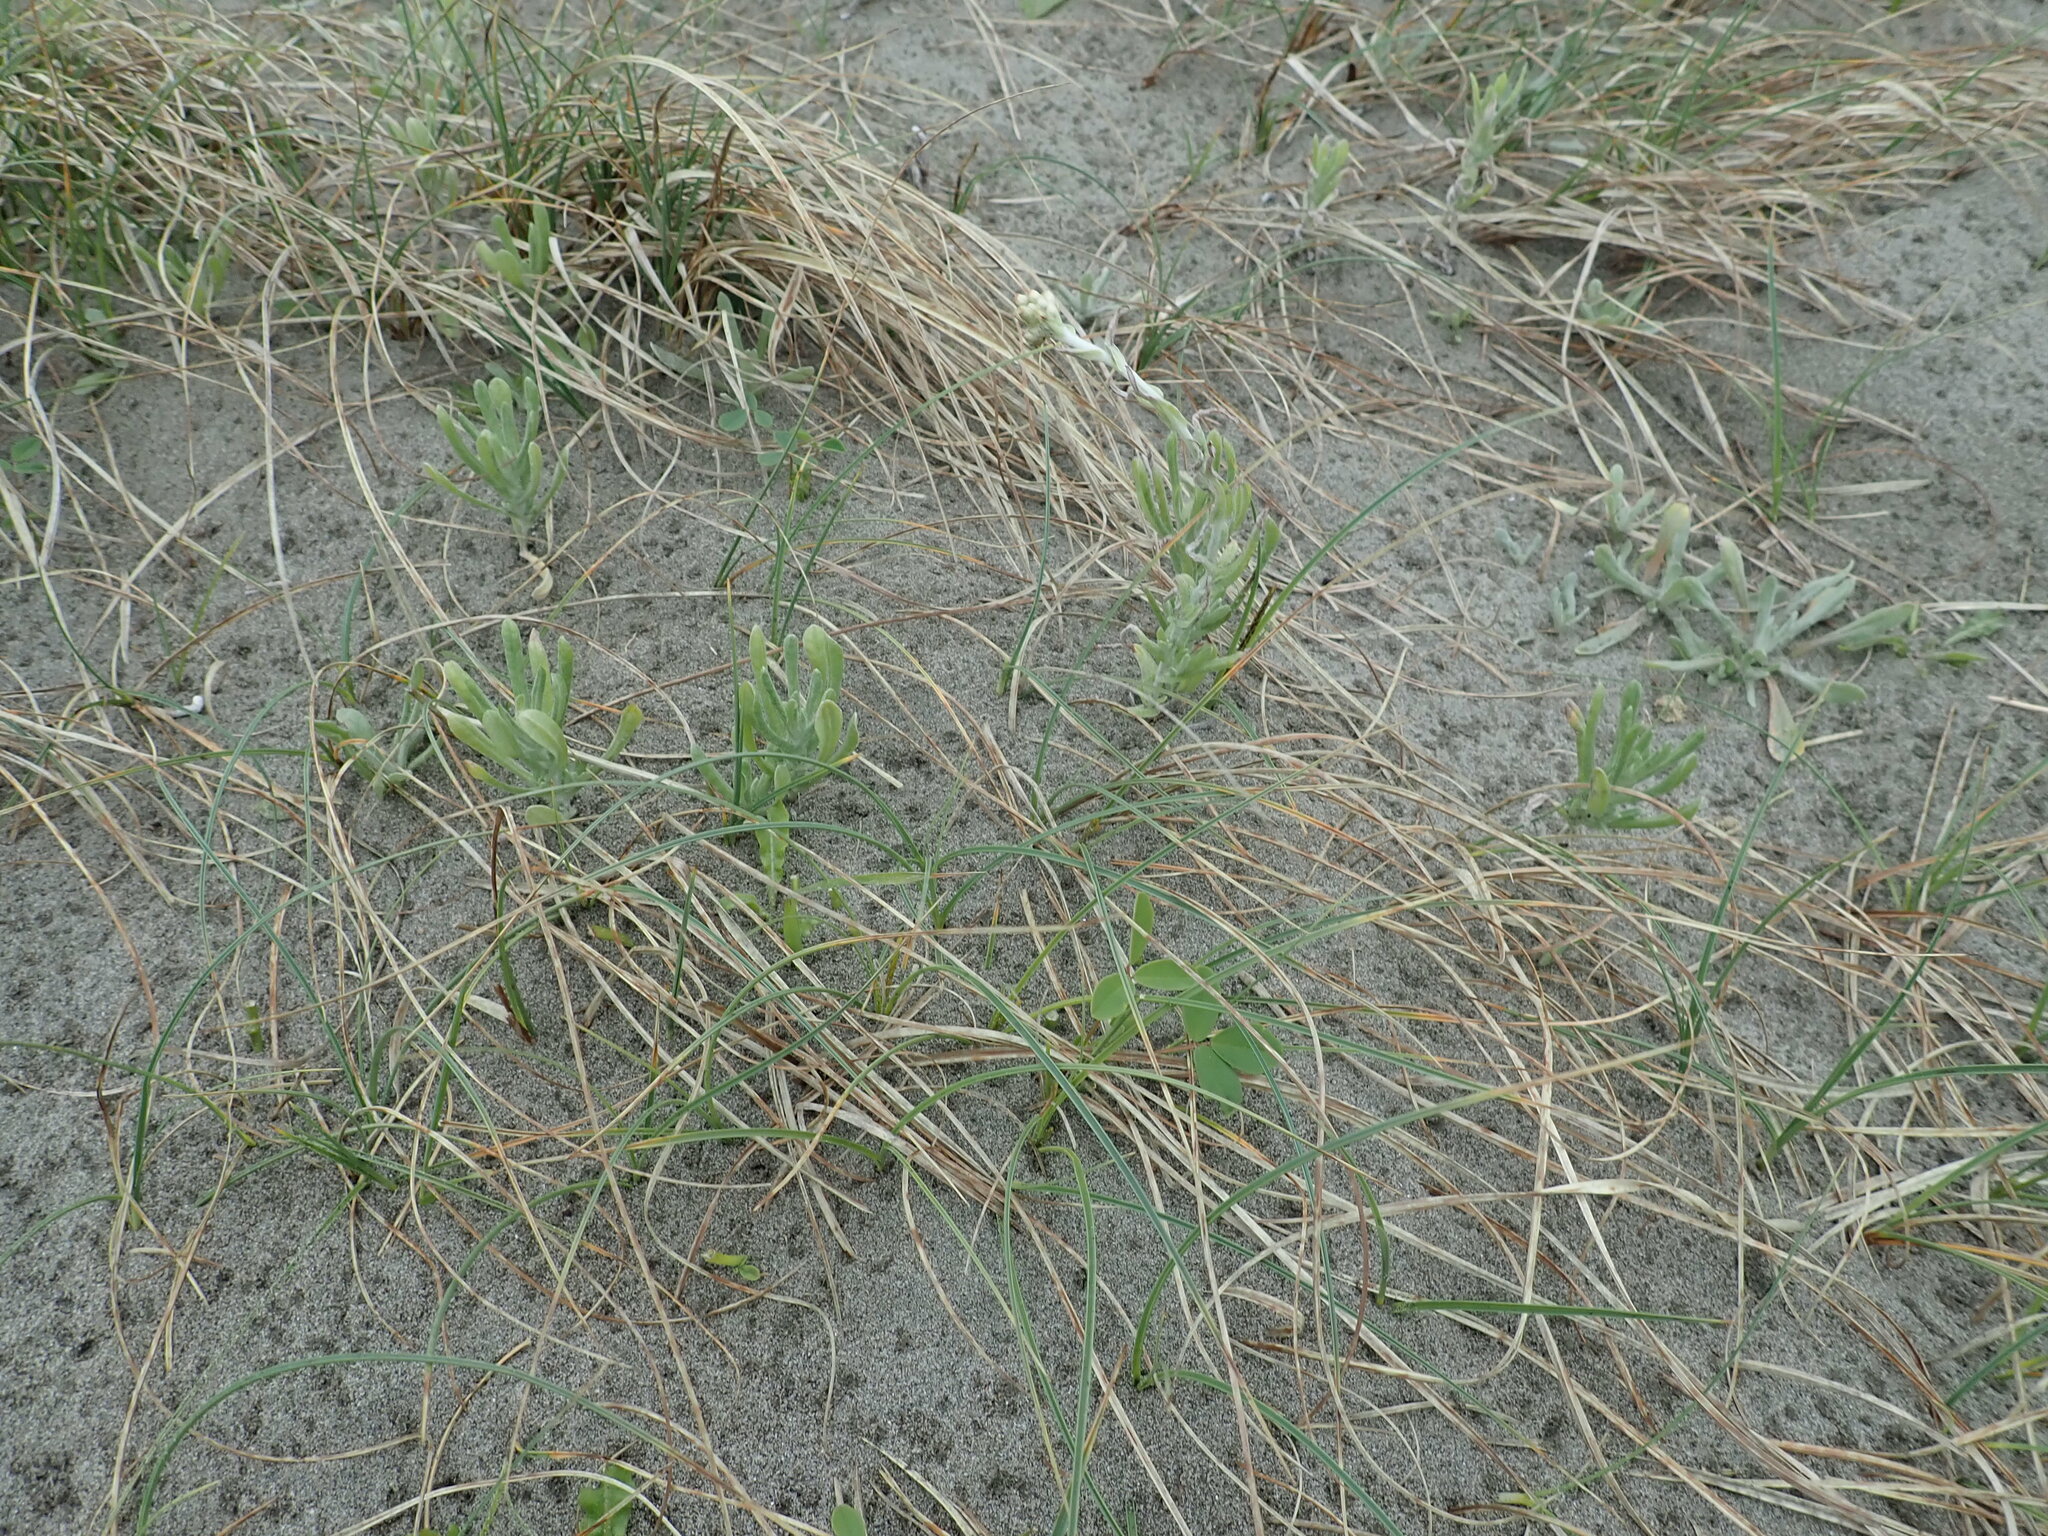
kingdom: Plantae
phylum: Tracheophyta
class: Magnoliopsida
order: Asterales
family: Asteraceae
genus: Helichrysum
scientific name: Helichrysum luteoalbum
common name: Daisy
